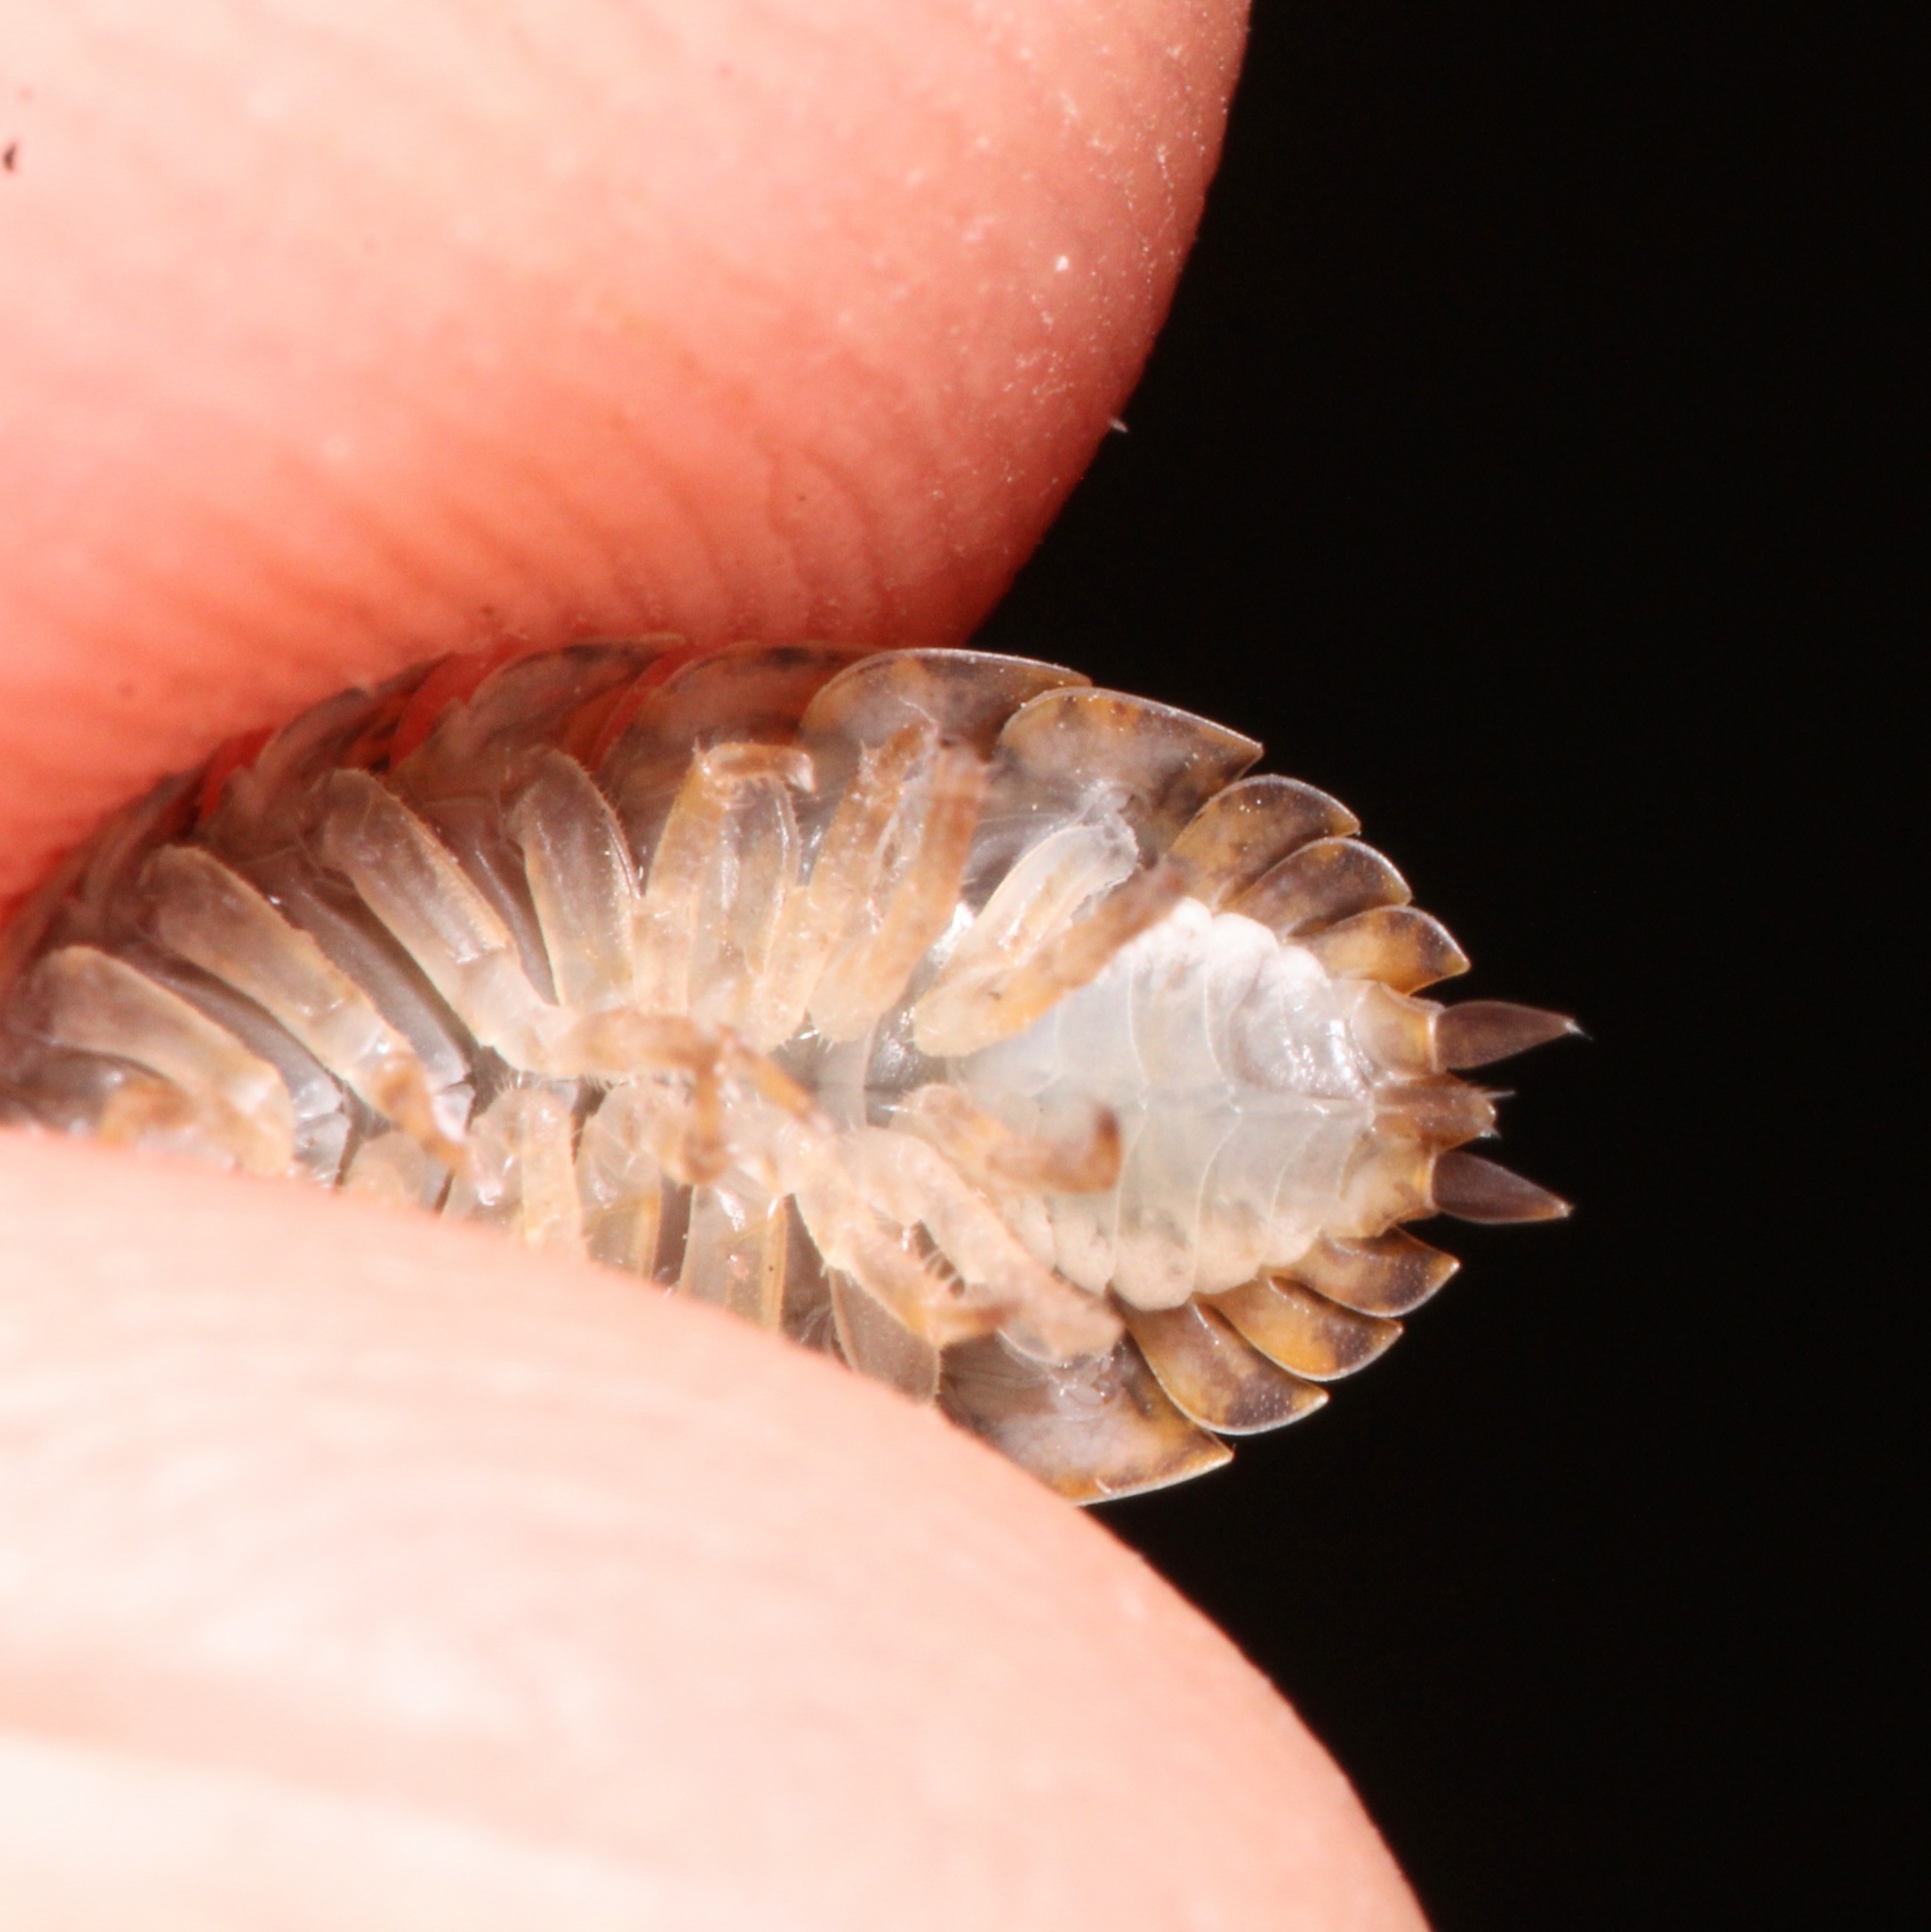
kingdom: Animalia
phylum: Arthropoda
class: Malacostraca
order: Isopoda
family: Trachelipodidae
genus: Trachelipus
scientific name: Trachelipus rathkii
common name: Isopod
